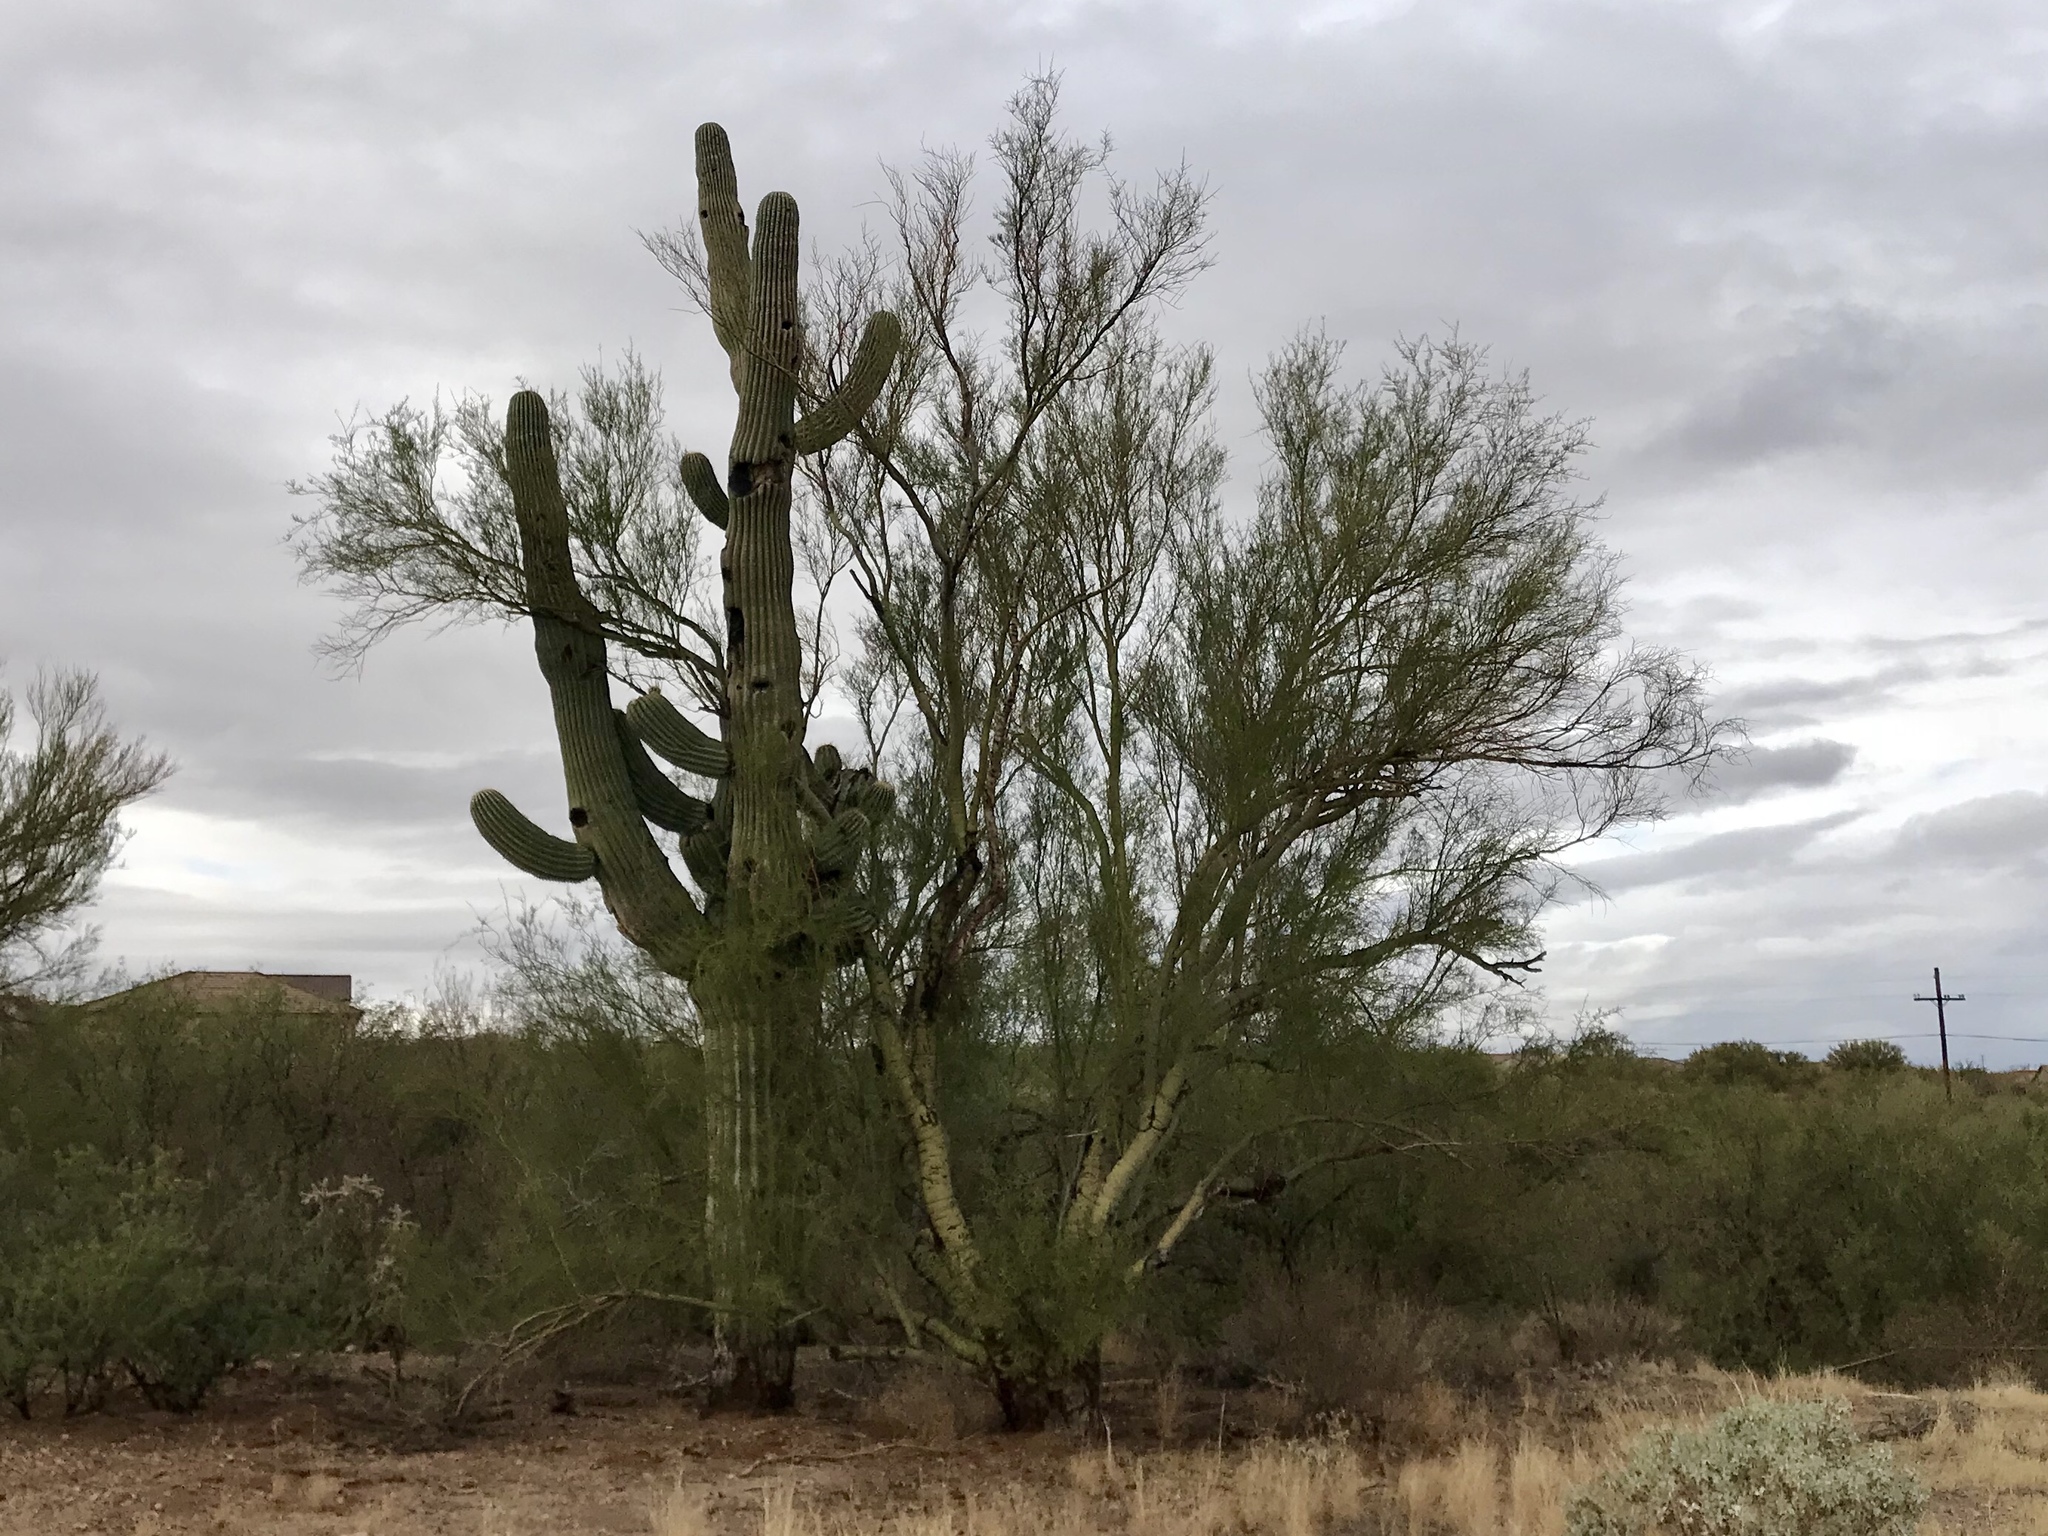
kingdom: Plantae
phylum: Tracheophyta
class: Magnoliopsida
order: Fabales
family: Fabaceae
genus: Parkinsonia
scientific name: Parkinsonia microphylla
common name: Yellow paloverde
